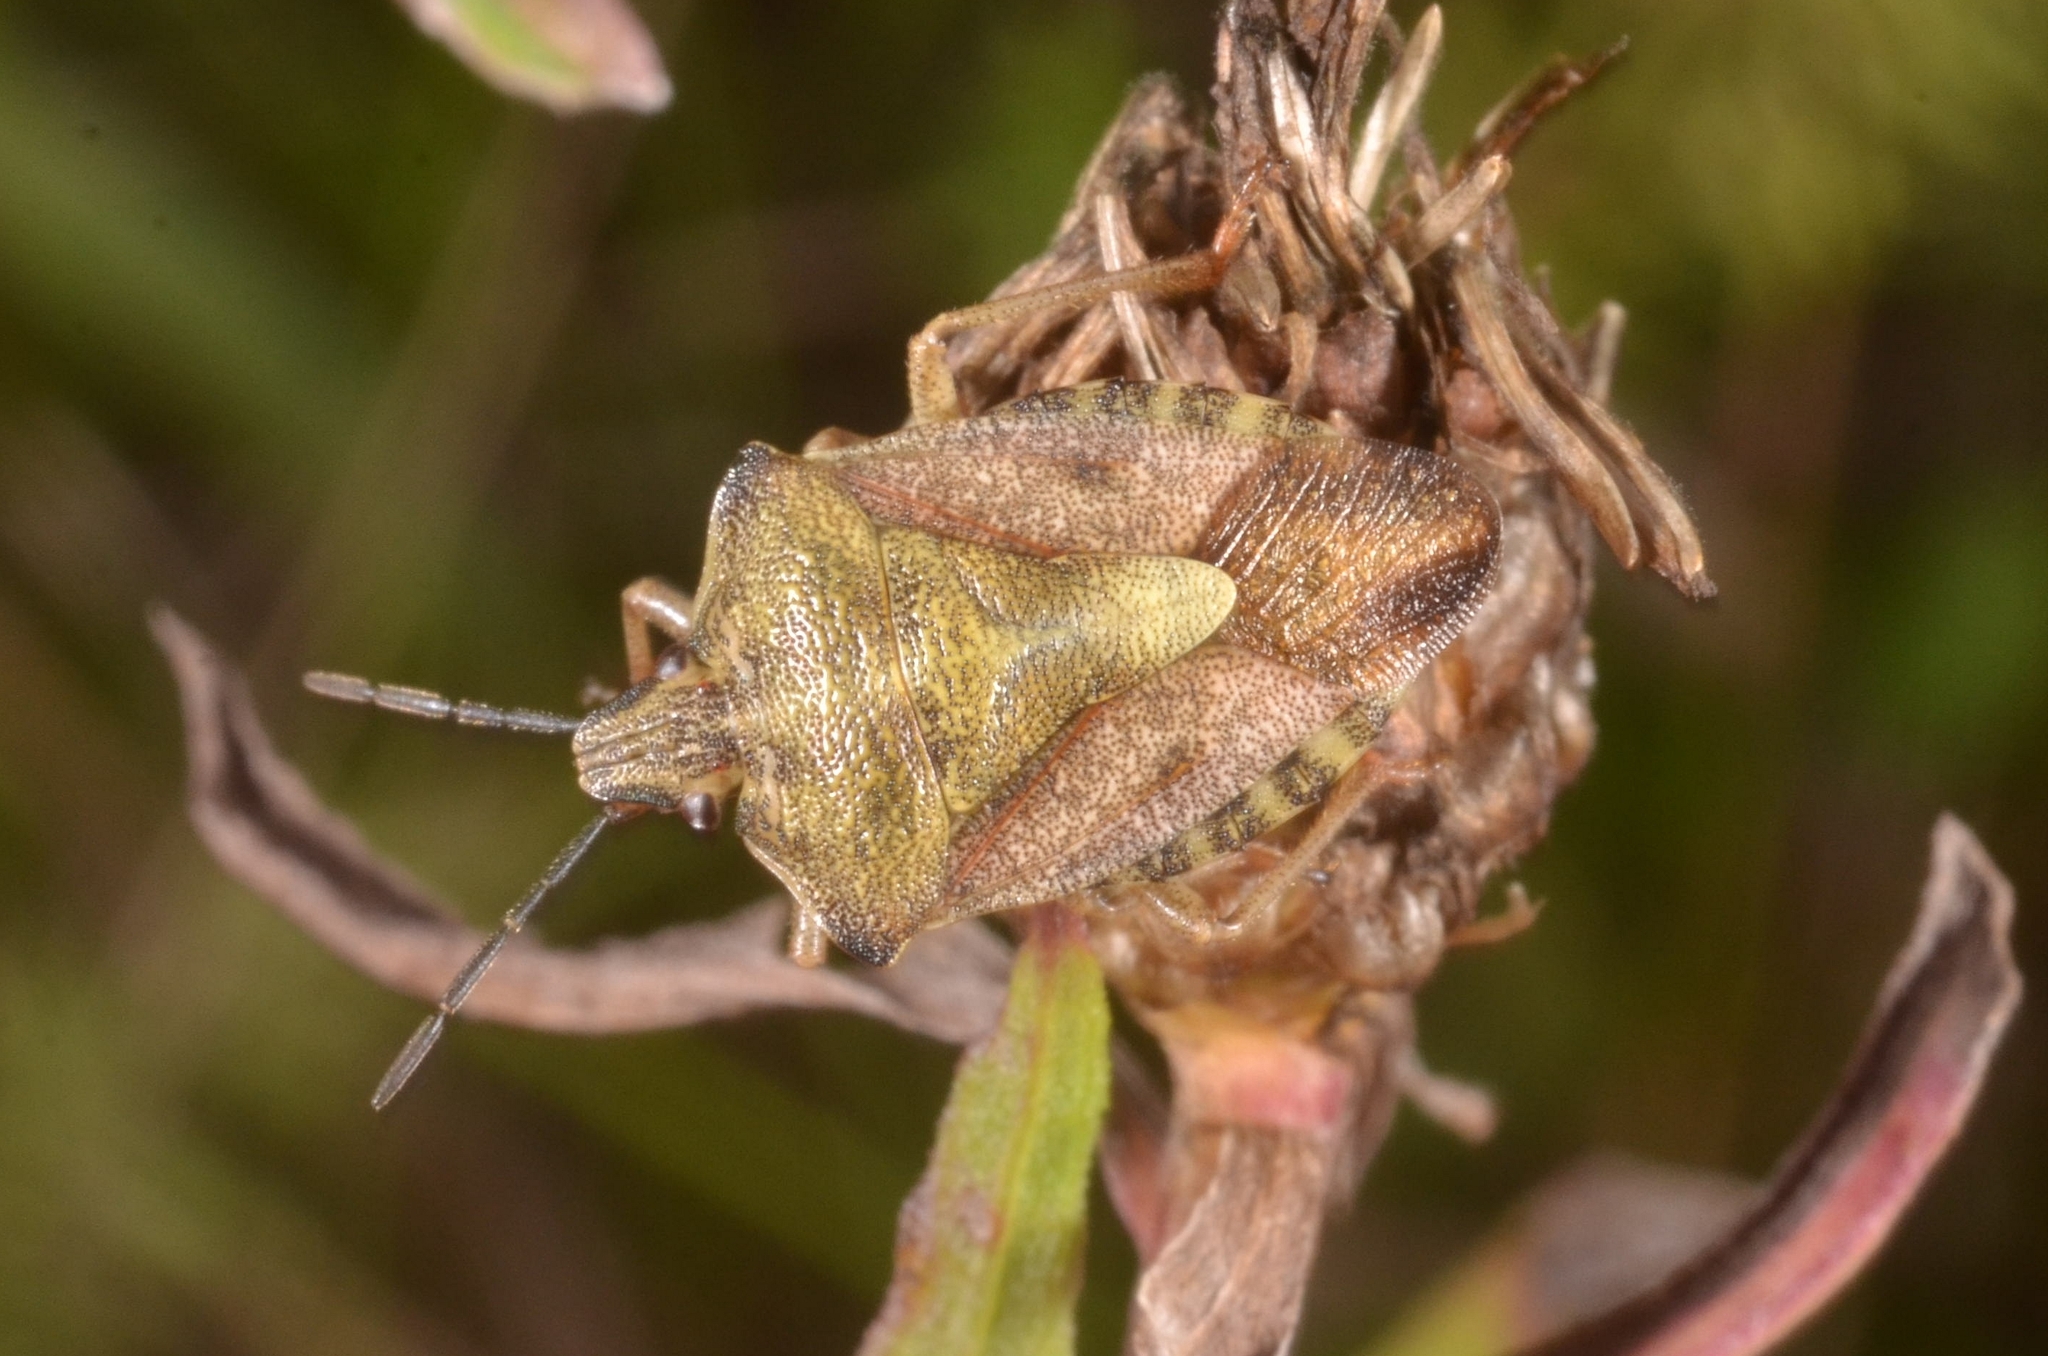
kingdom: Animalia
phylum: Arthropoda
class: Insecta
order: Hemiptera
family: Pentatomidae
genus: Carpocoris
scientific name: Carpocoris purpureipennis
